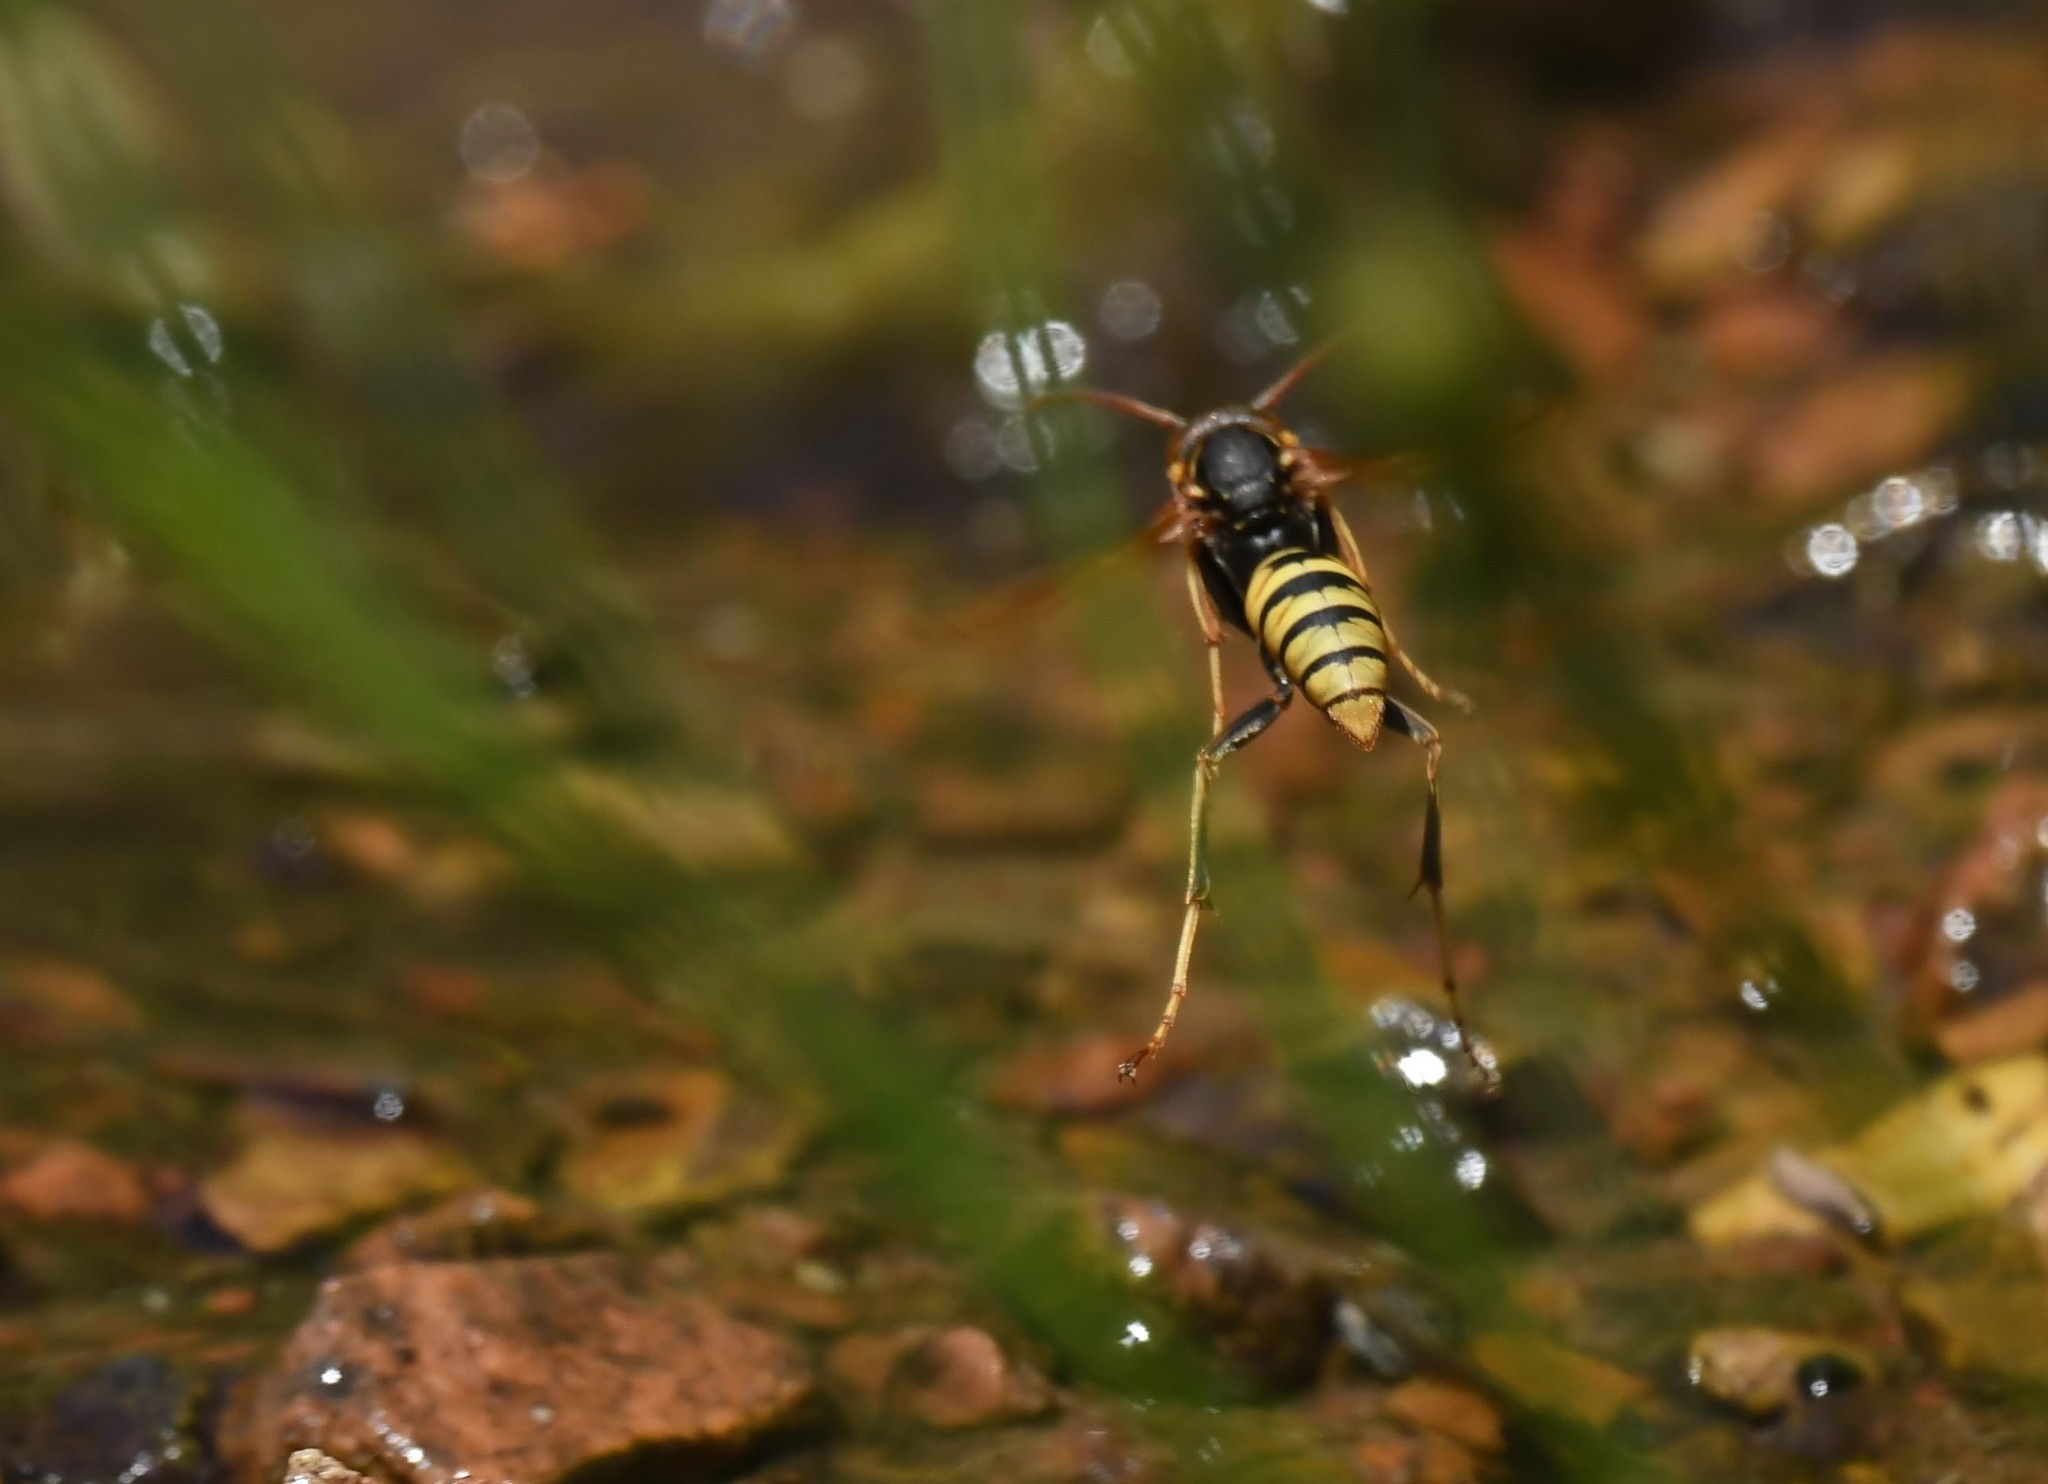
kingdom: Animalia
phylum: Arthropoda
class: Insecta
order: Hymenoptera
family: Eumenidae
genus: Polistes
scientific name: Polistes aurifer
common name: Paper wasp
